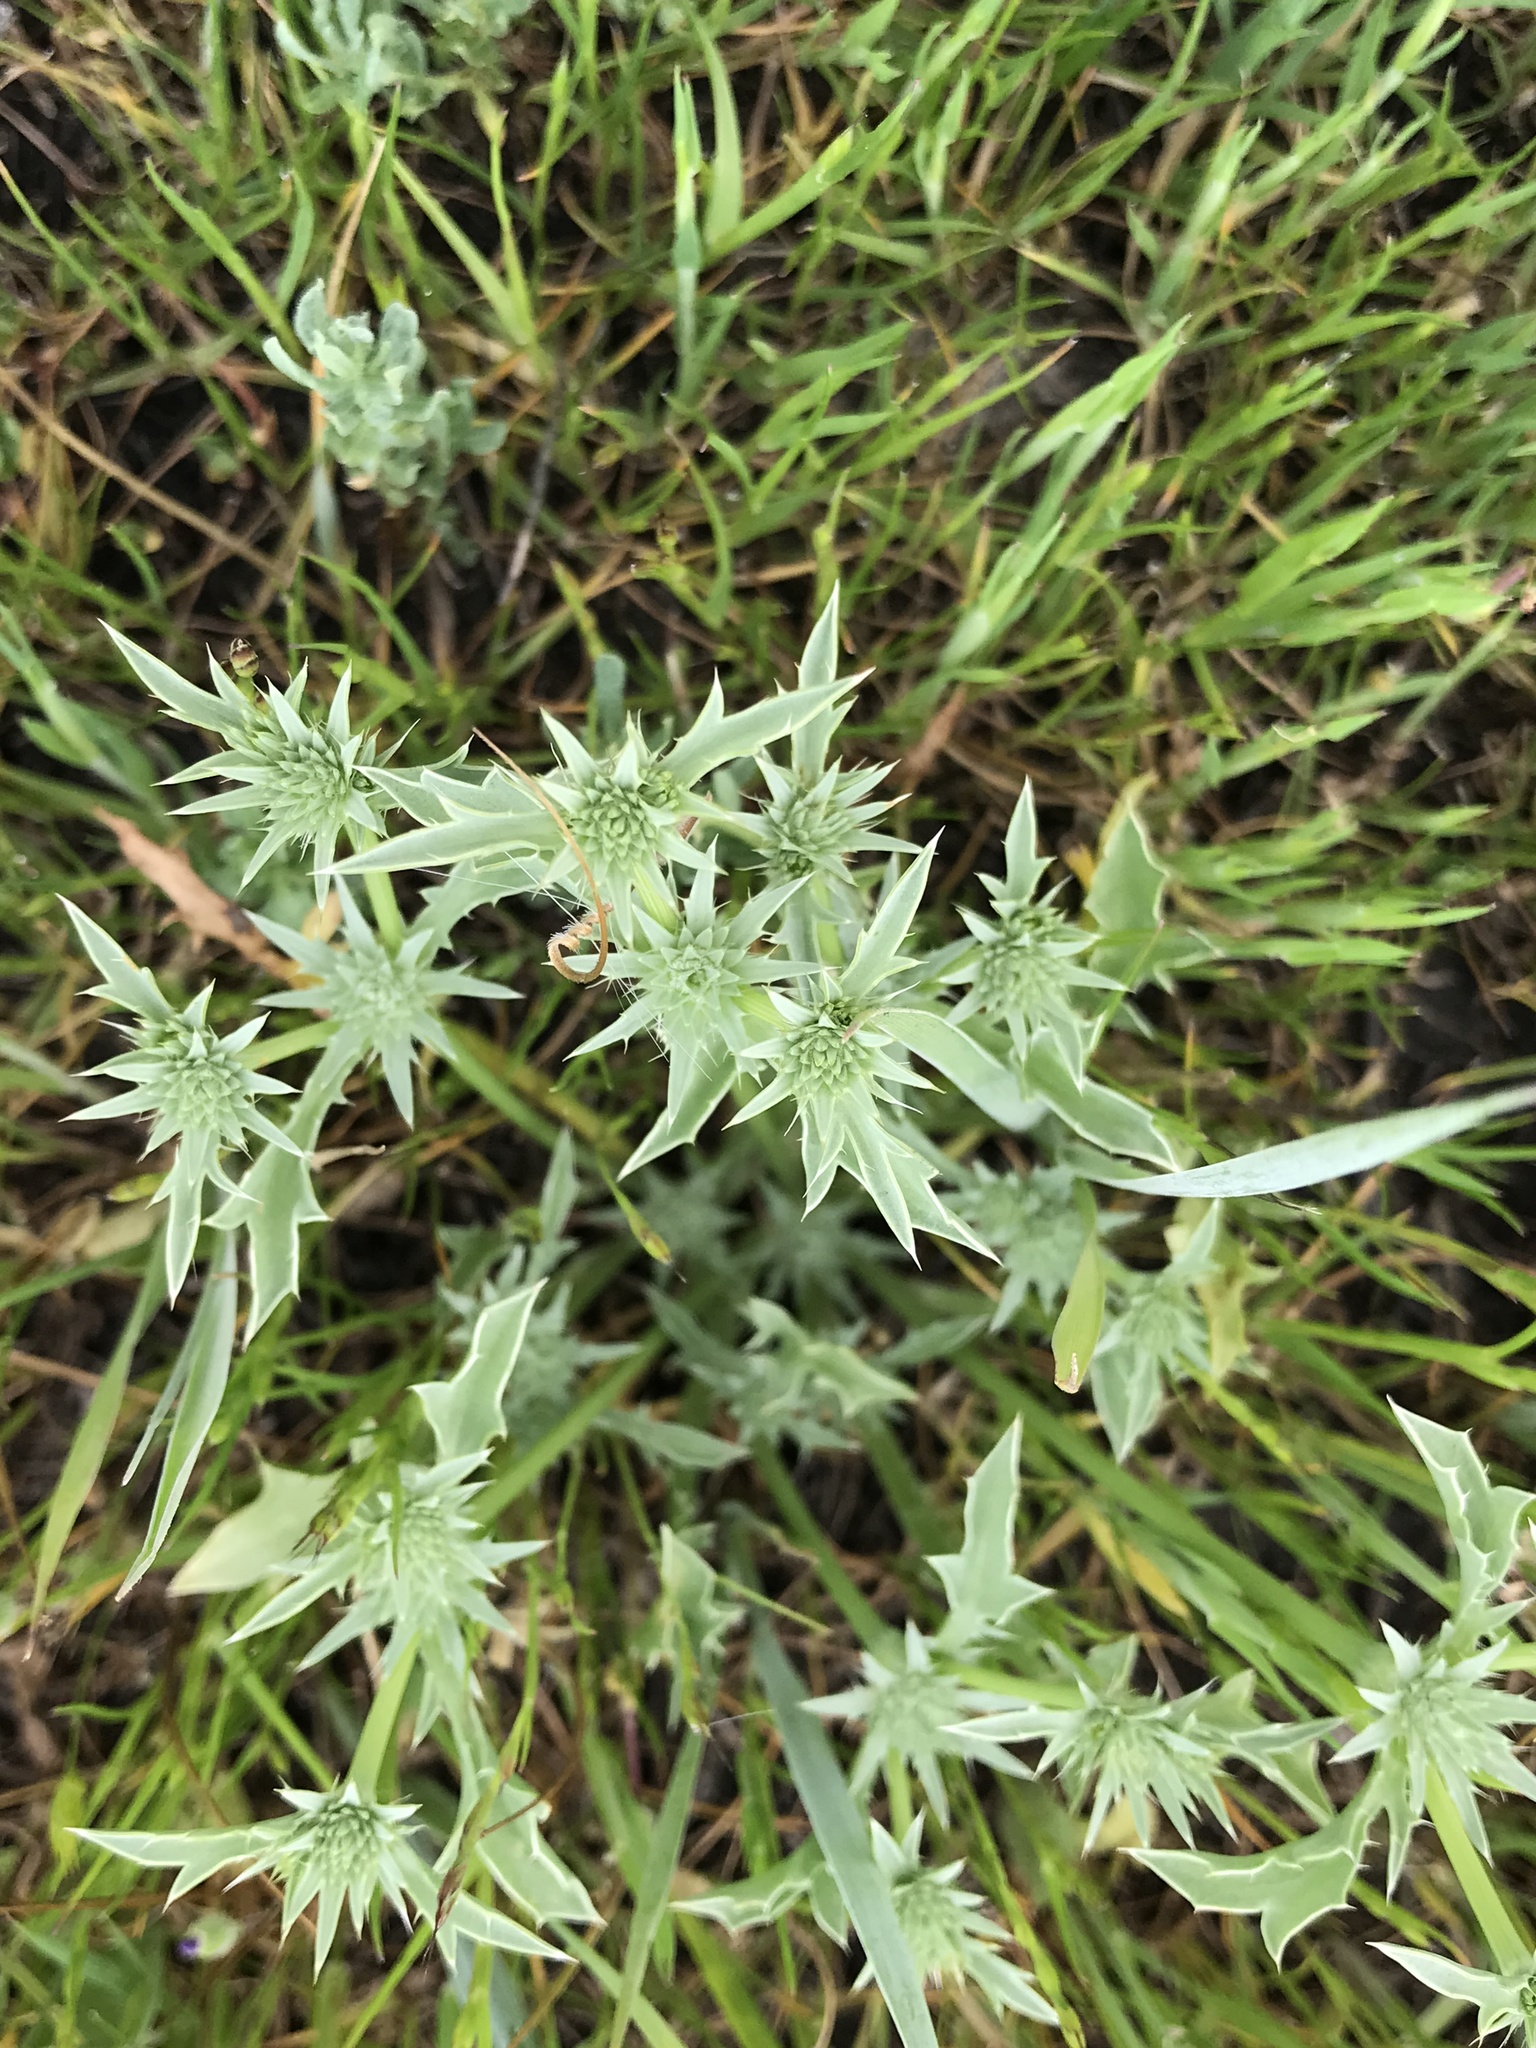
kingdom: Plantae
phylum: Tracheophyta
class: Magnoliopsida
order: Apiales
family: Apiaceae
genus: Eryngium
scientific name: Eryngium aristulatum
